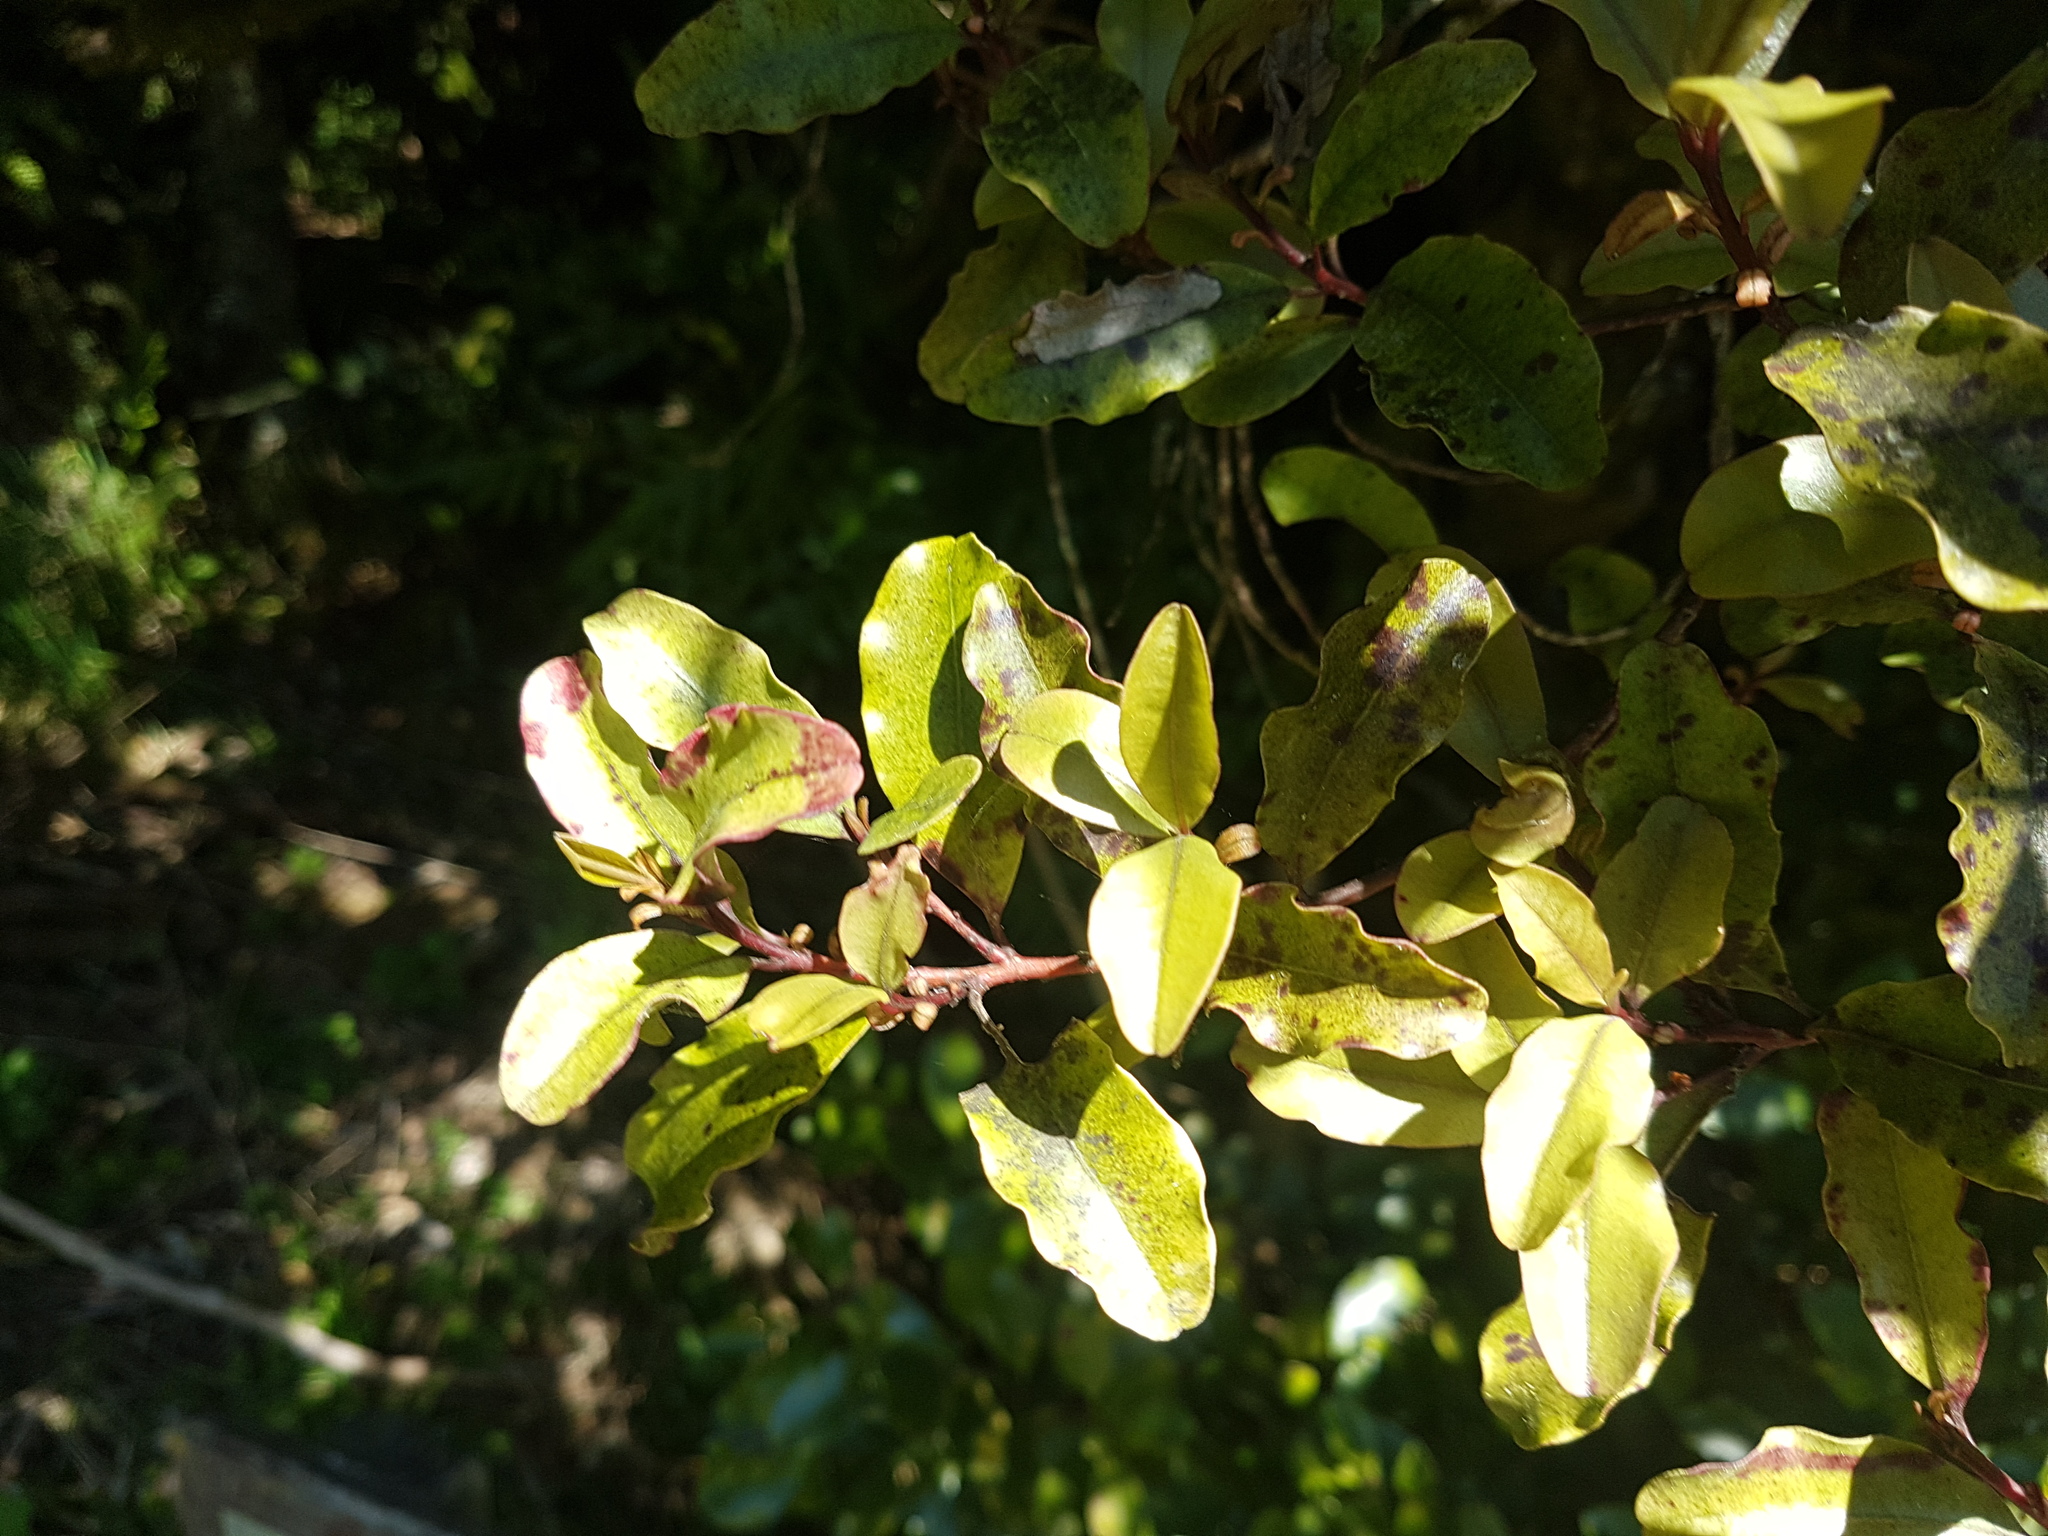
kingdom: Plantae
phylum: Tracheophyta
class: Magnoliopsida
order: Ericales
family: Primulaceae
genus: Myrsine
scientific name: Myrsine australis
